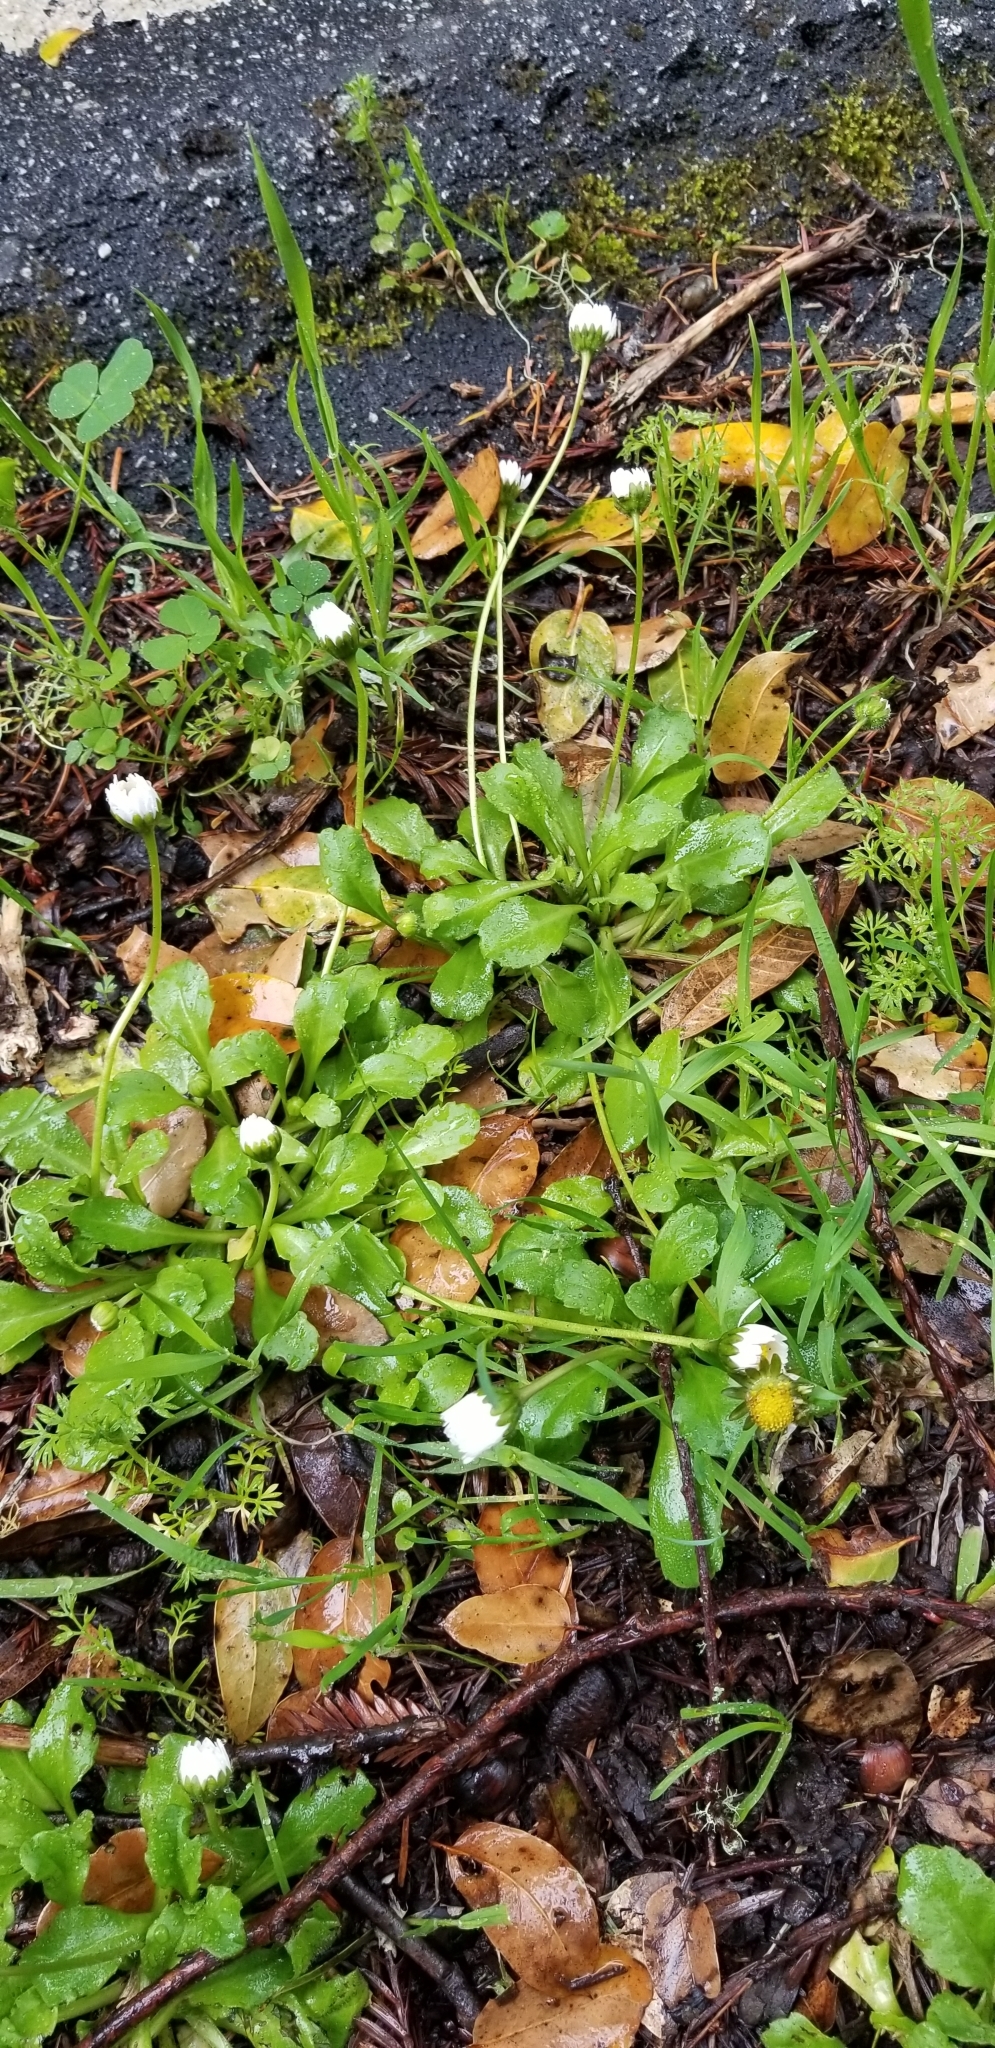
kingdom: Plantae
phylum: Tracheophyta
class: Magnoliopsida
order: Asterales
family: Asteraceae
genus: Bellis
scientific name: Bellis perennis
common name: Lawndaisy
